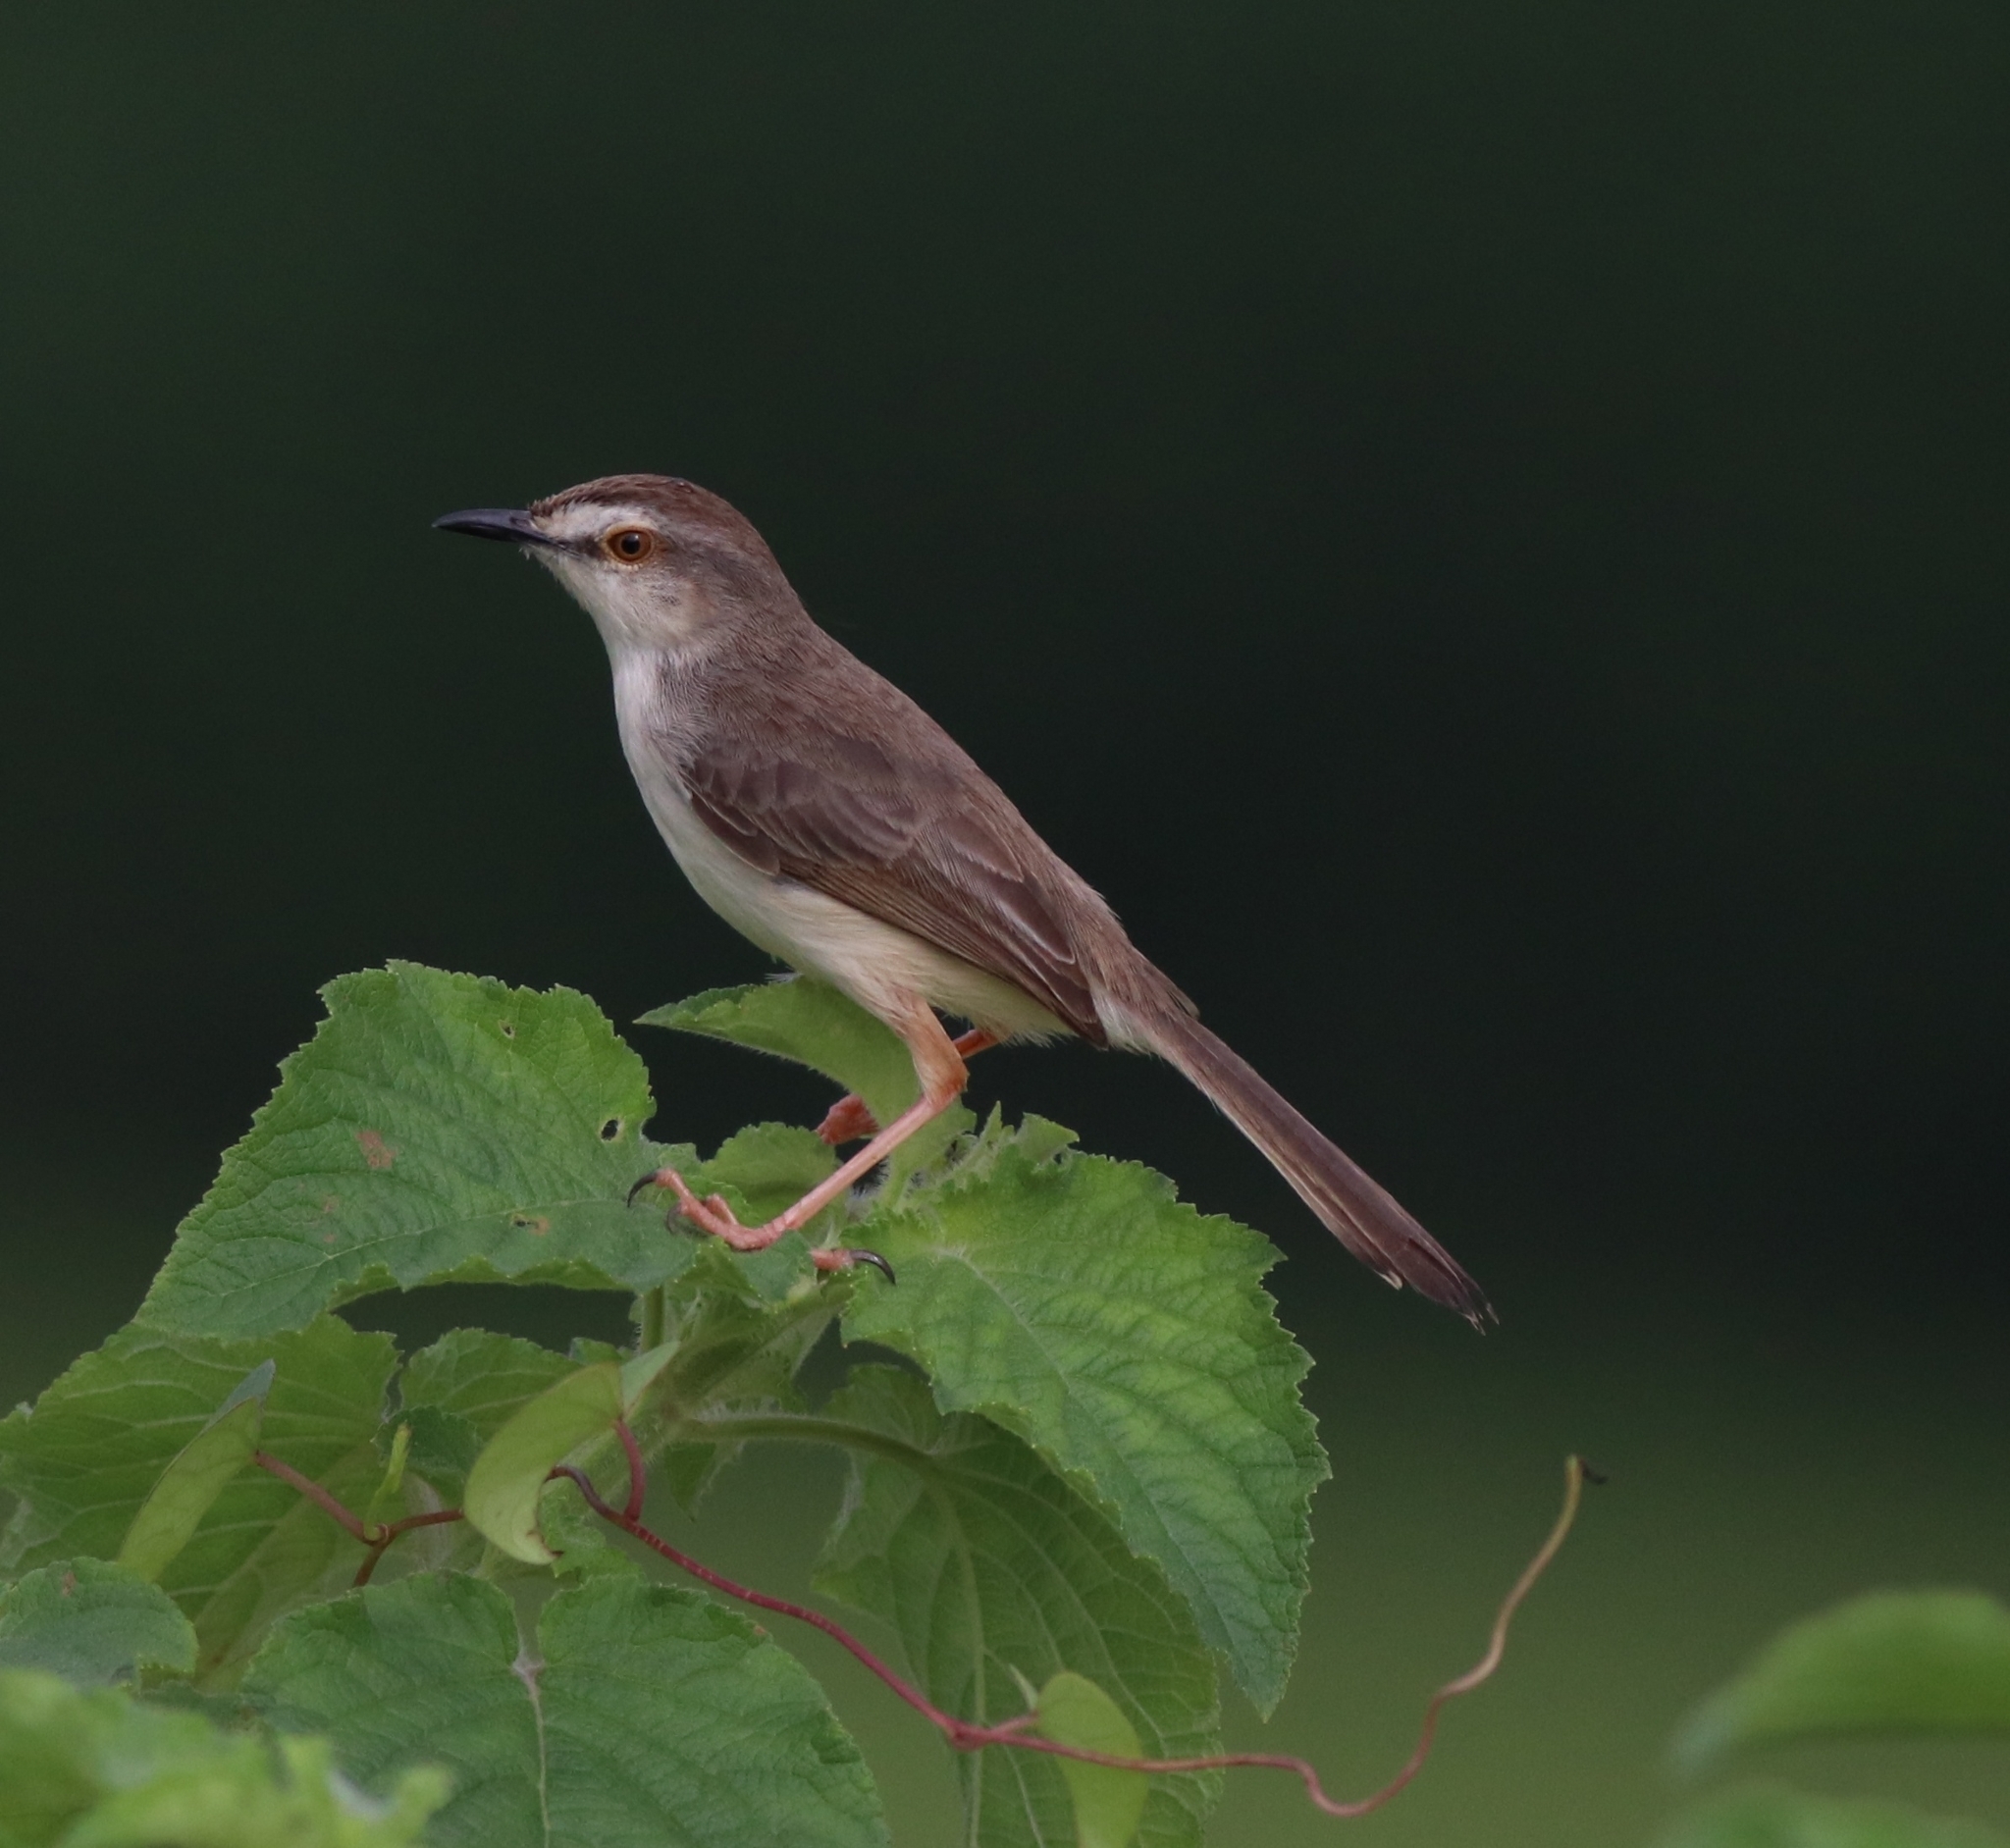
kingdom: Animalia
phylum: Chordata
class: Aves
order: Passeriformes
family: Cisticolidae
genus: Prinia
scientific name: Prinia inornata
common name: Plain prinia
